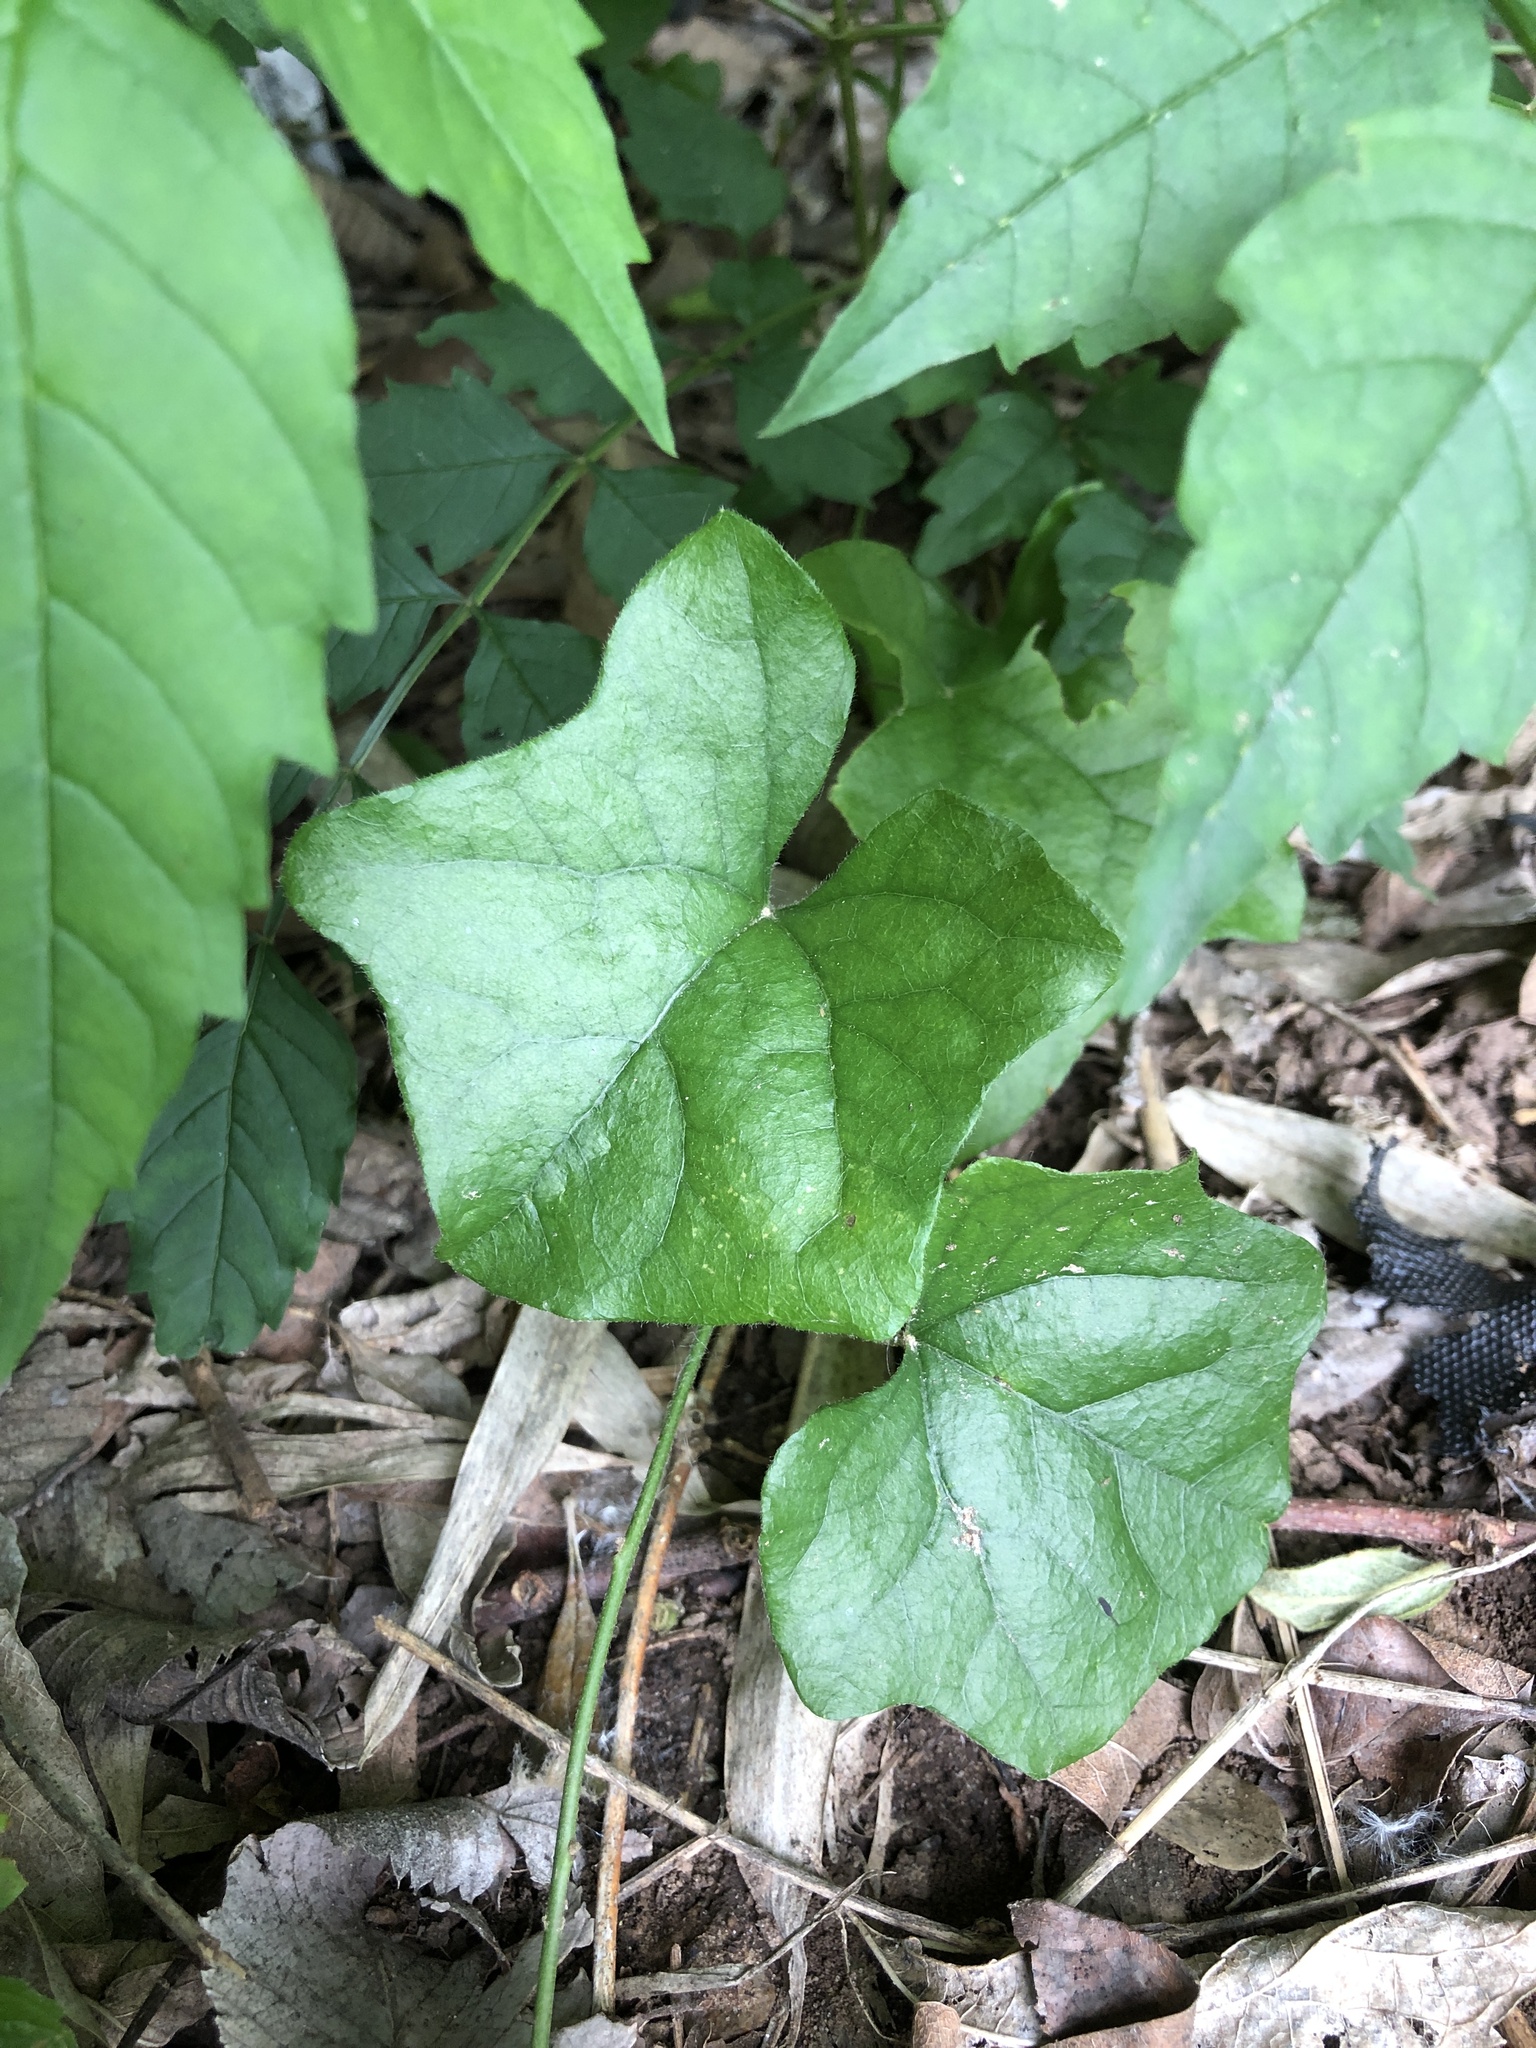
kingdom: Plantae
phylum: Tracheophyta
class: Magnoliopsida
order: Ranunculales
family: Menispermaceae
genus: Cocculus
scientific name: Cocculus carolinus
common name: Carolina moonseed
